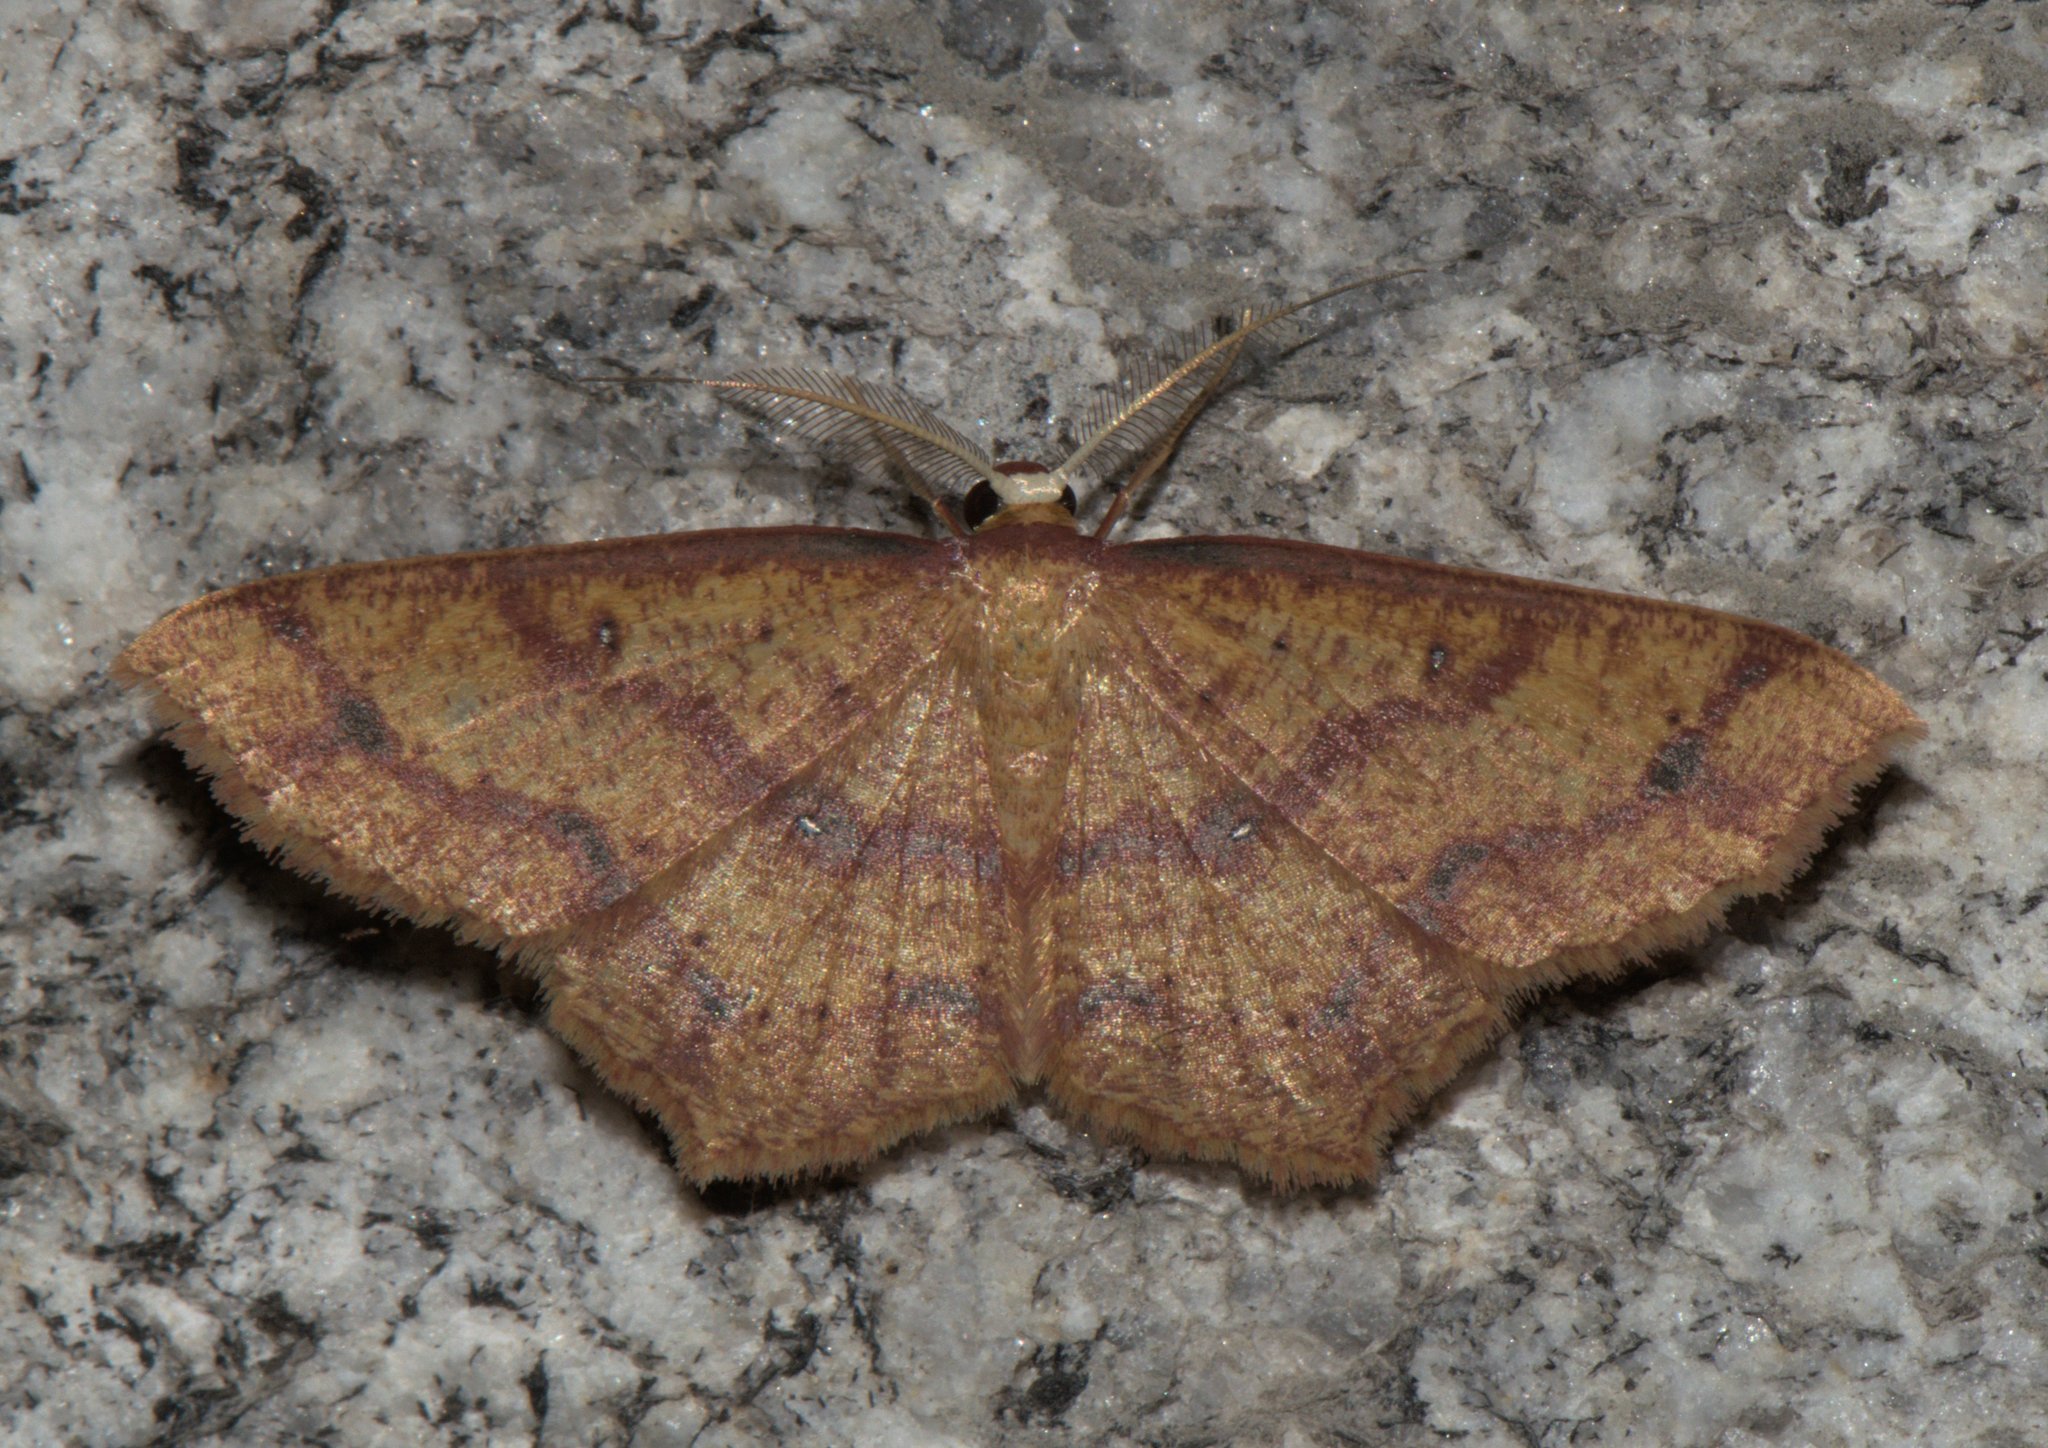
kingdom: Animalia
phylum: Arthropoda
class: Insecta
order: Lepidoptera
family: Geometridae
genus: Synegiodes
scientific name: Synegiodes hyriaria
